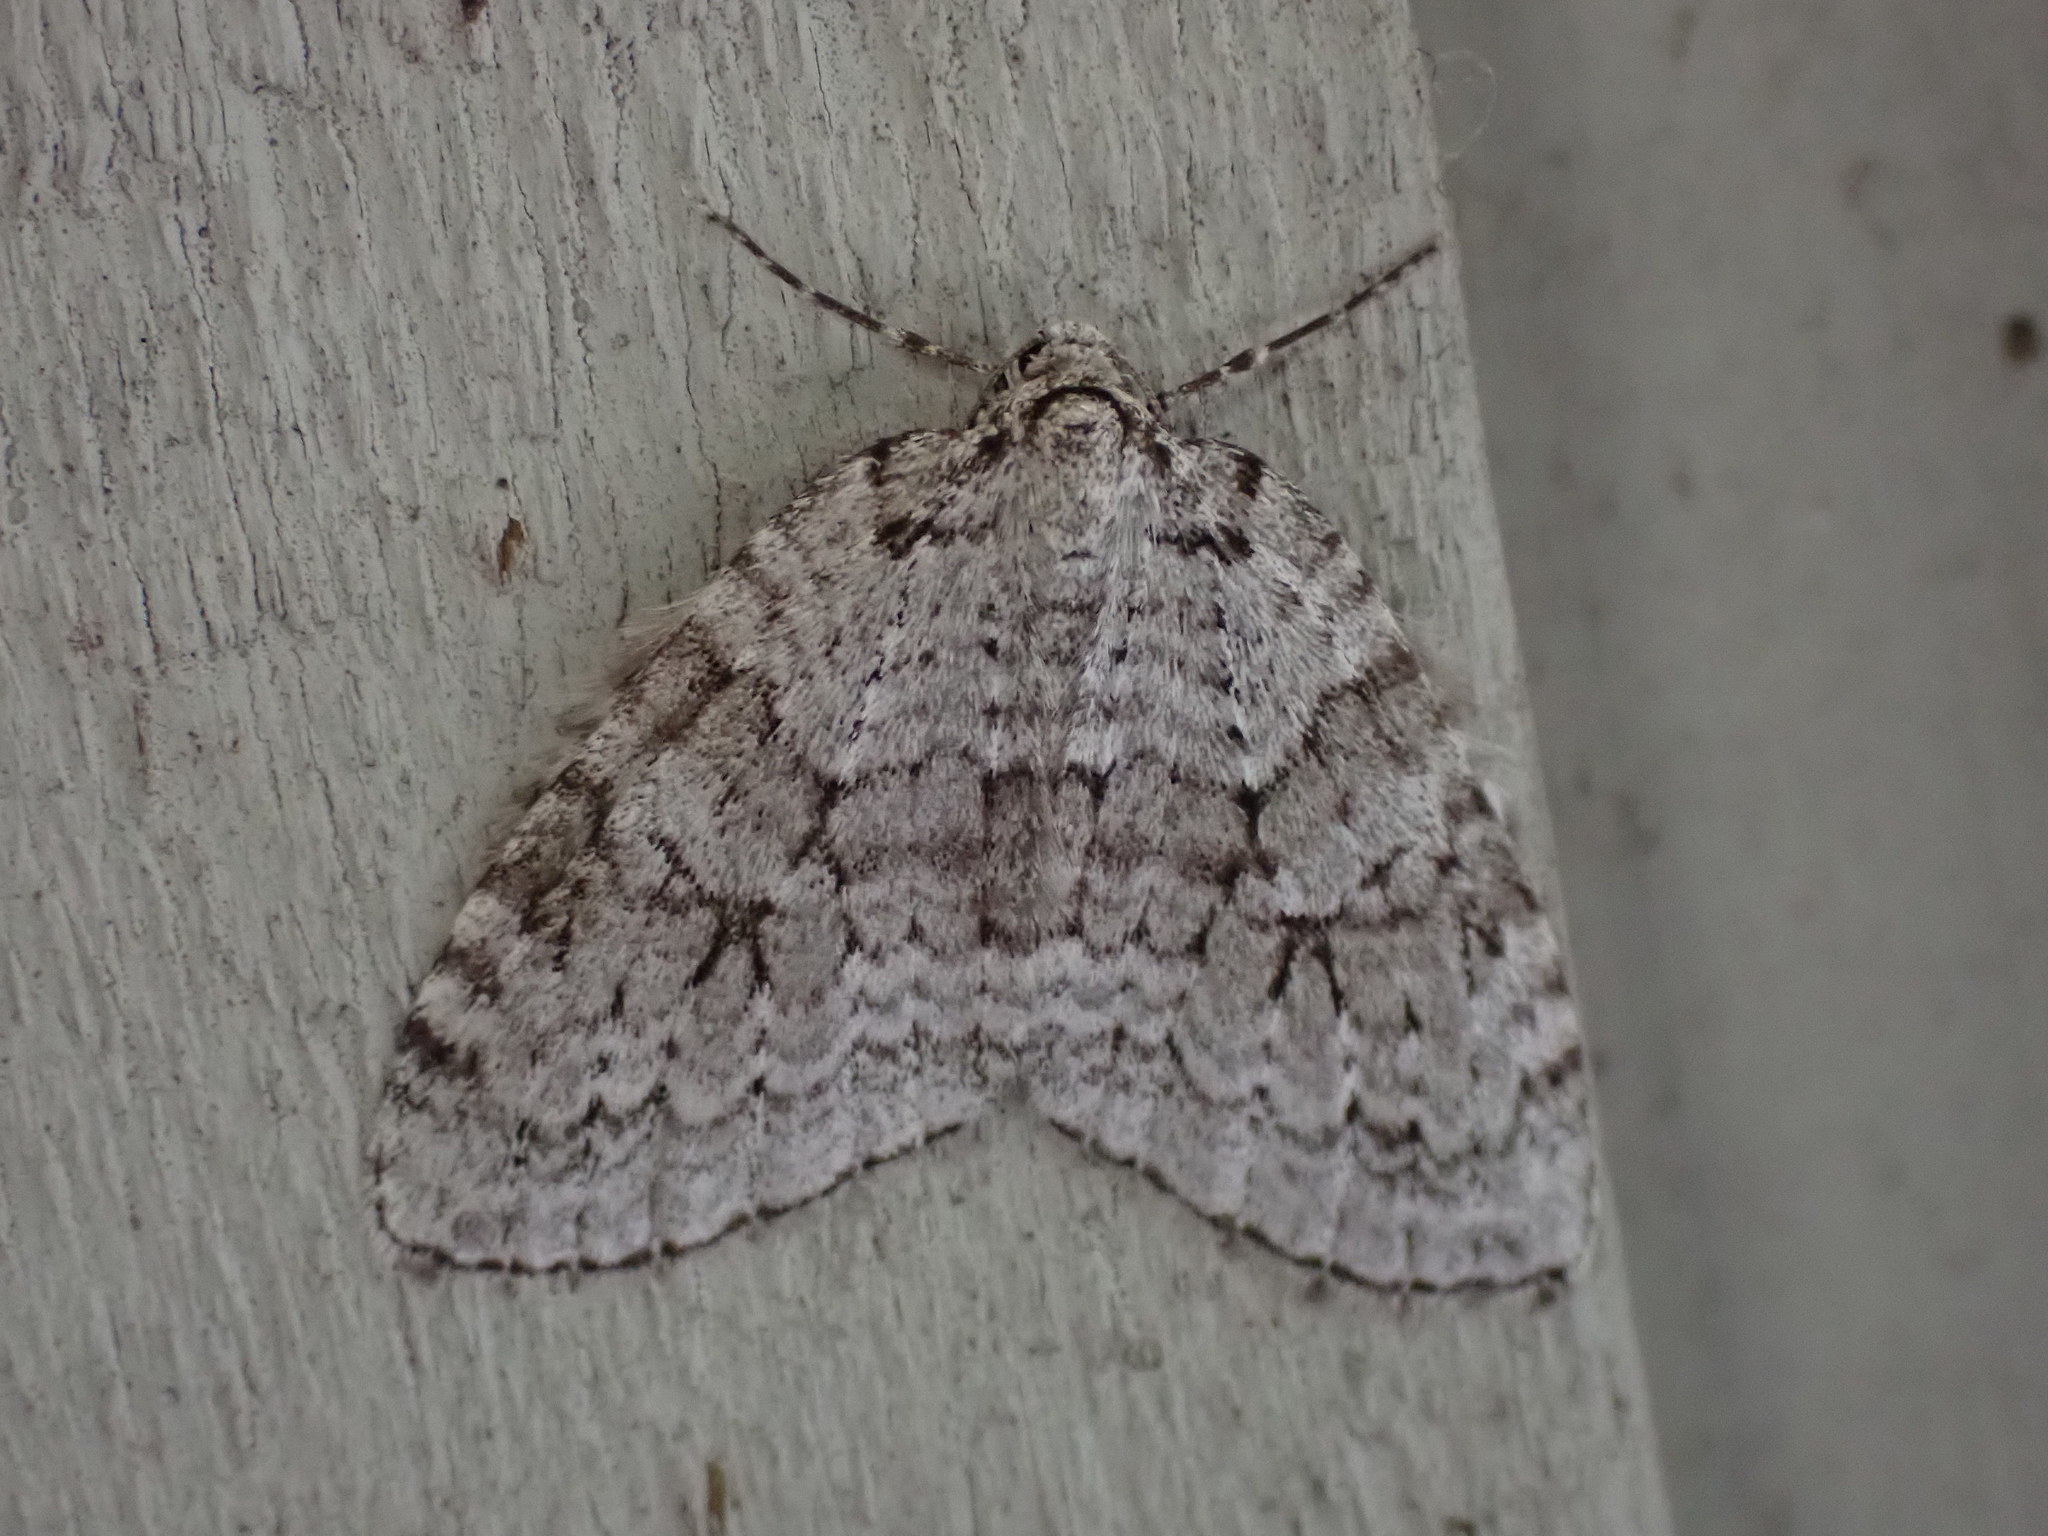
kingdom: Animalia
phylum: Arthropoda
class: Insecta
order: Lepidoptera
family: Geometridae
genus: Epirrita
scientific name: Epirrita autumnata
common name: Autumnal moth
